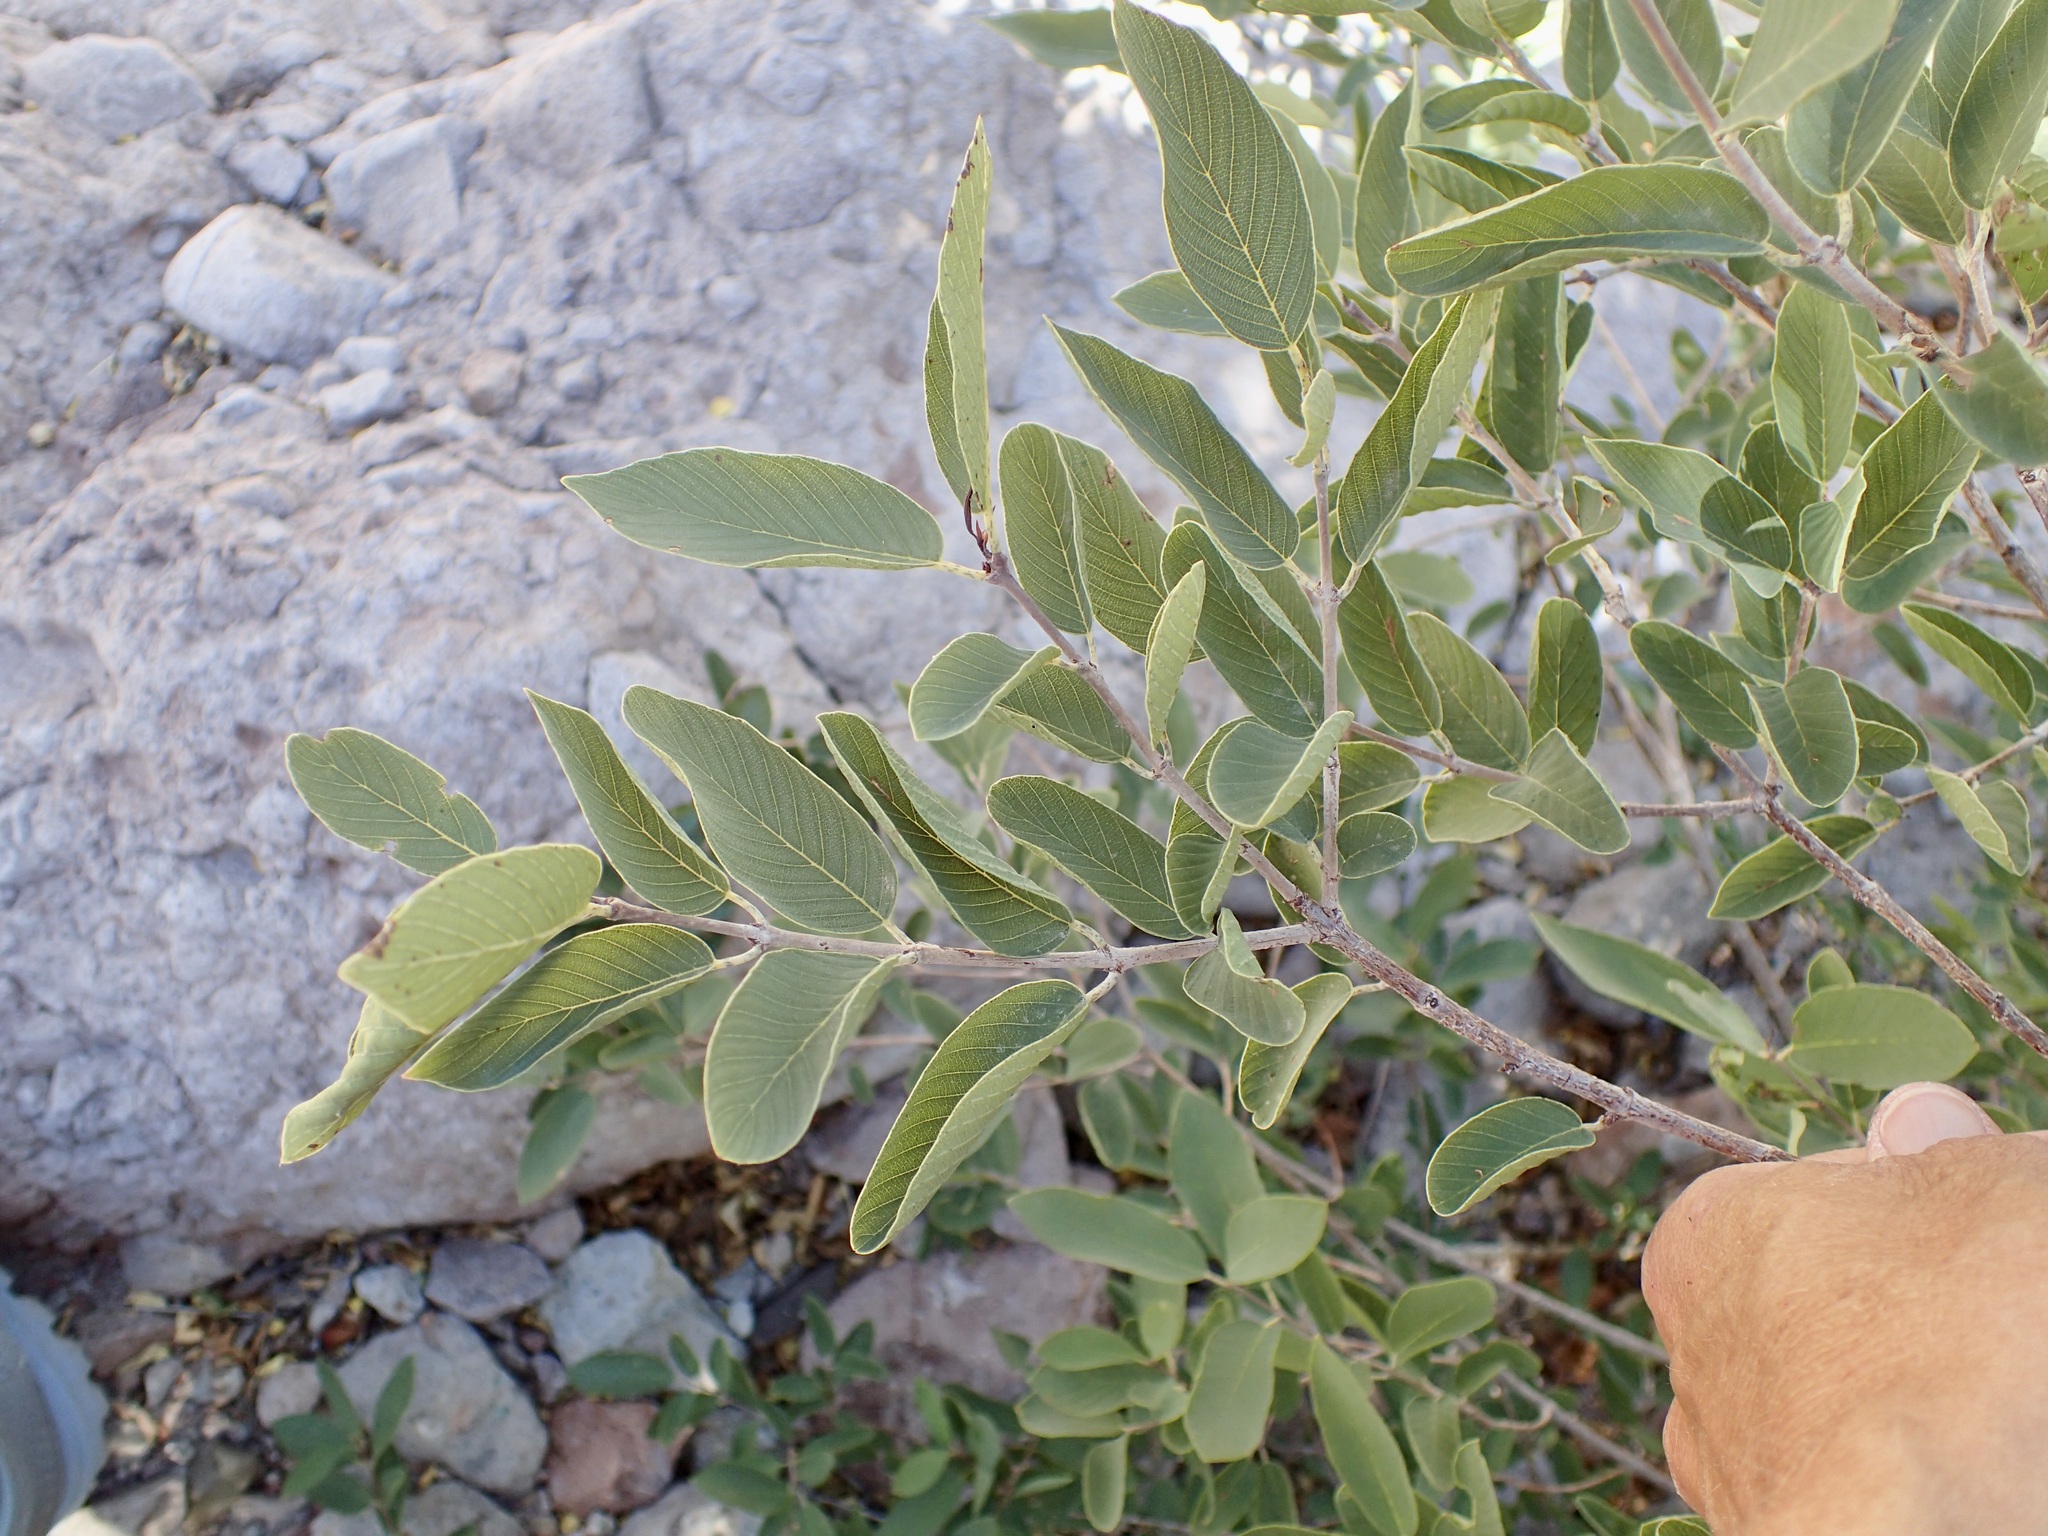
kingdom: Plantae
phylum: Tracheophyta
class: Magnoliopsida
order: Rosales
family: Rhamnaceae
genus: Karwinskia
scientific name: Karwinskia humboldtiana
